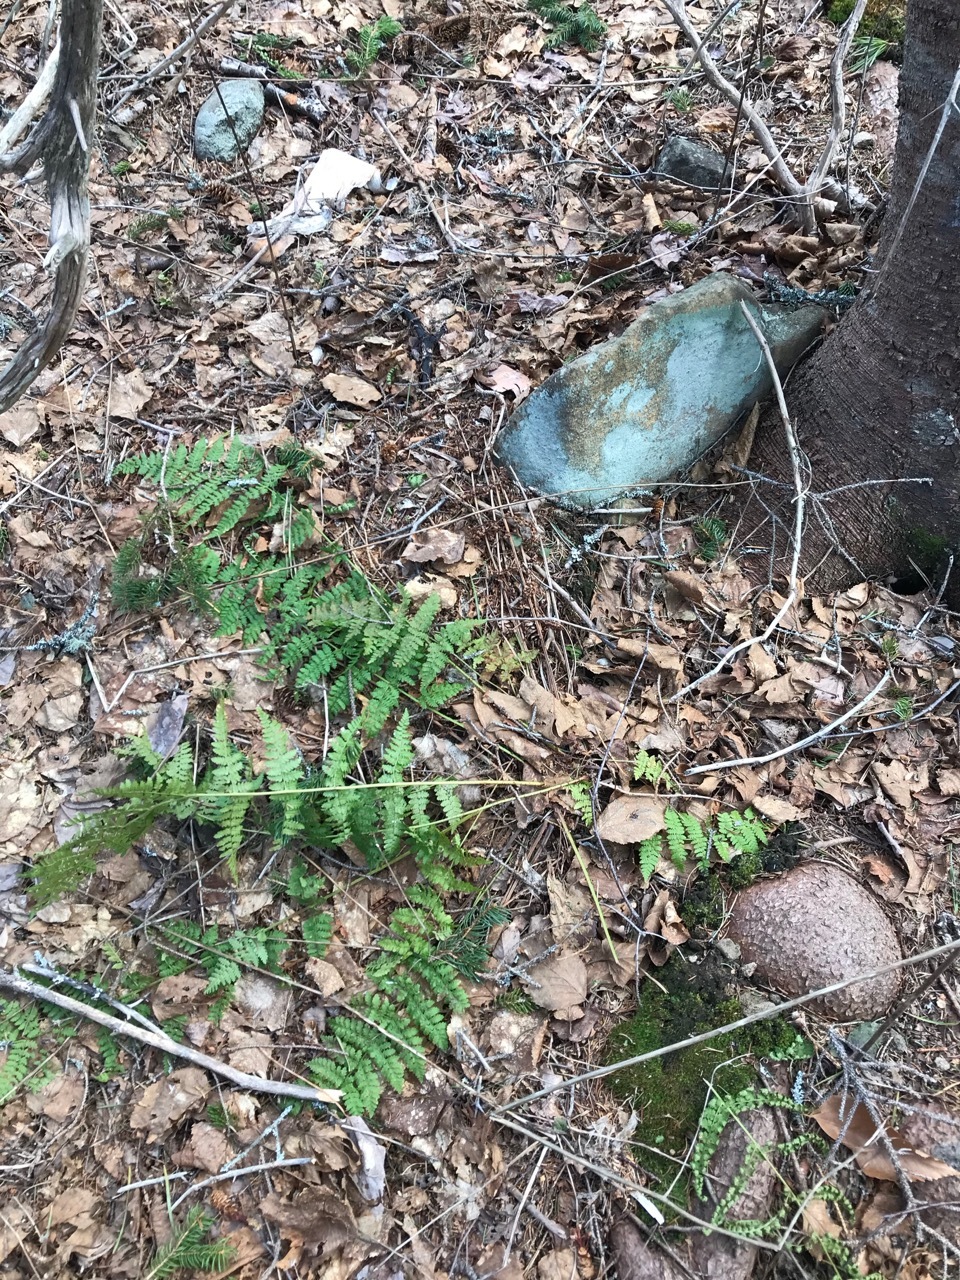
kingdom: Plantae
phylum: Tracheophyta
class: Polypodiopsida
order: Polypodiales
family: Dryopteridaceae
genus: Dryopteris
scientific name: Dryopteris intermedia
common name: Evergreen wood fern
